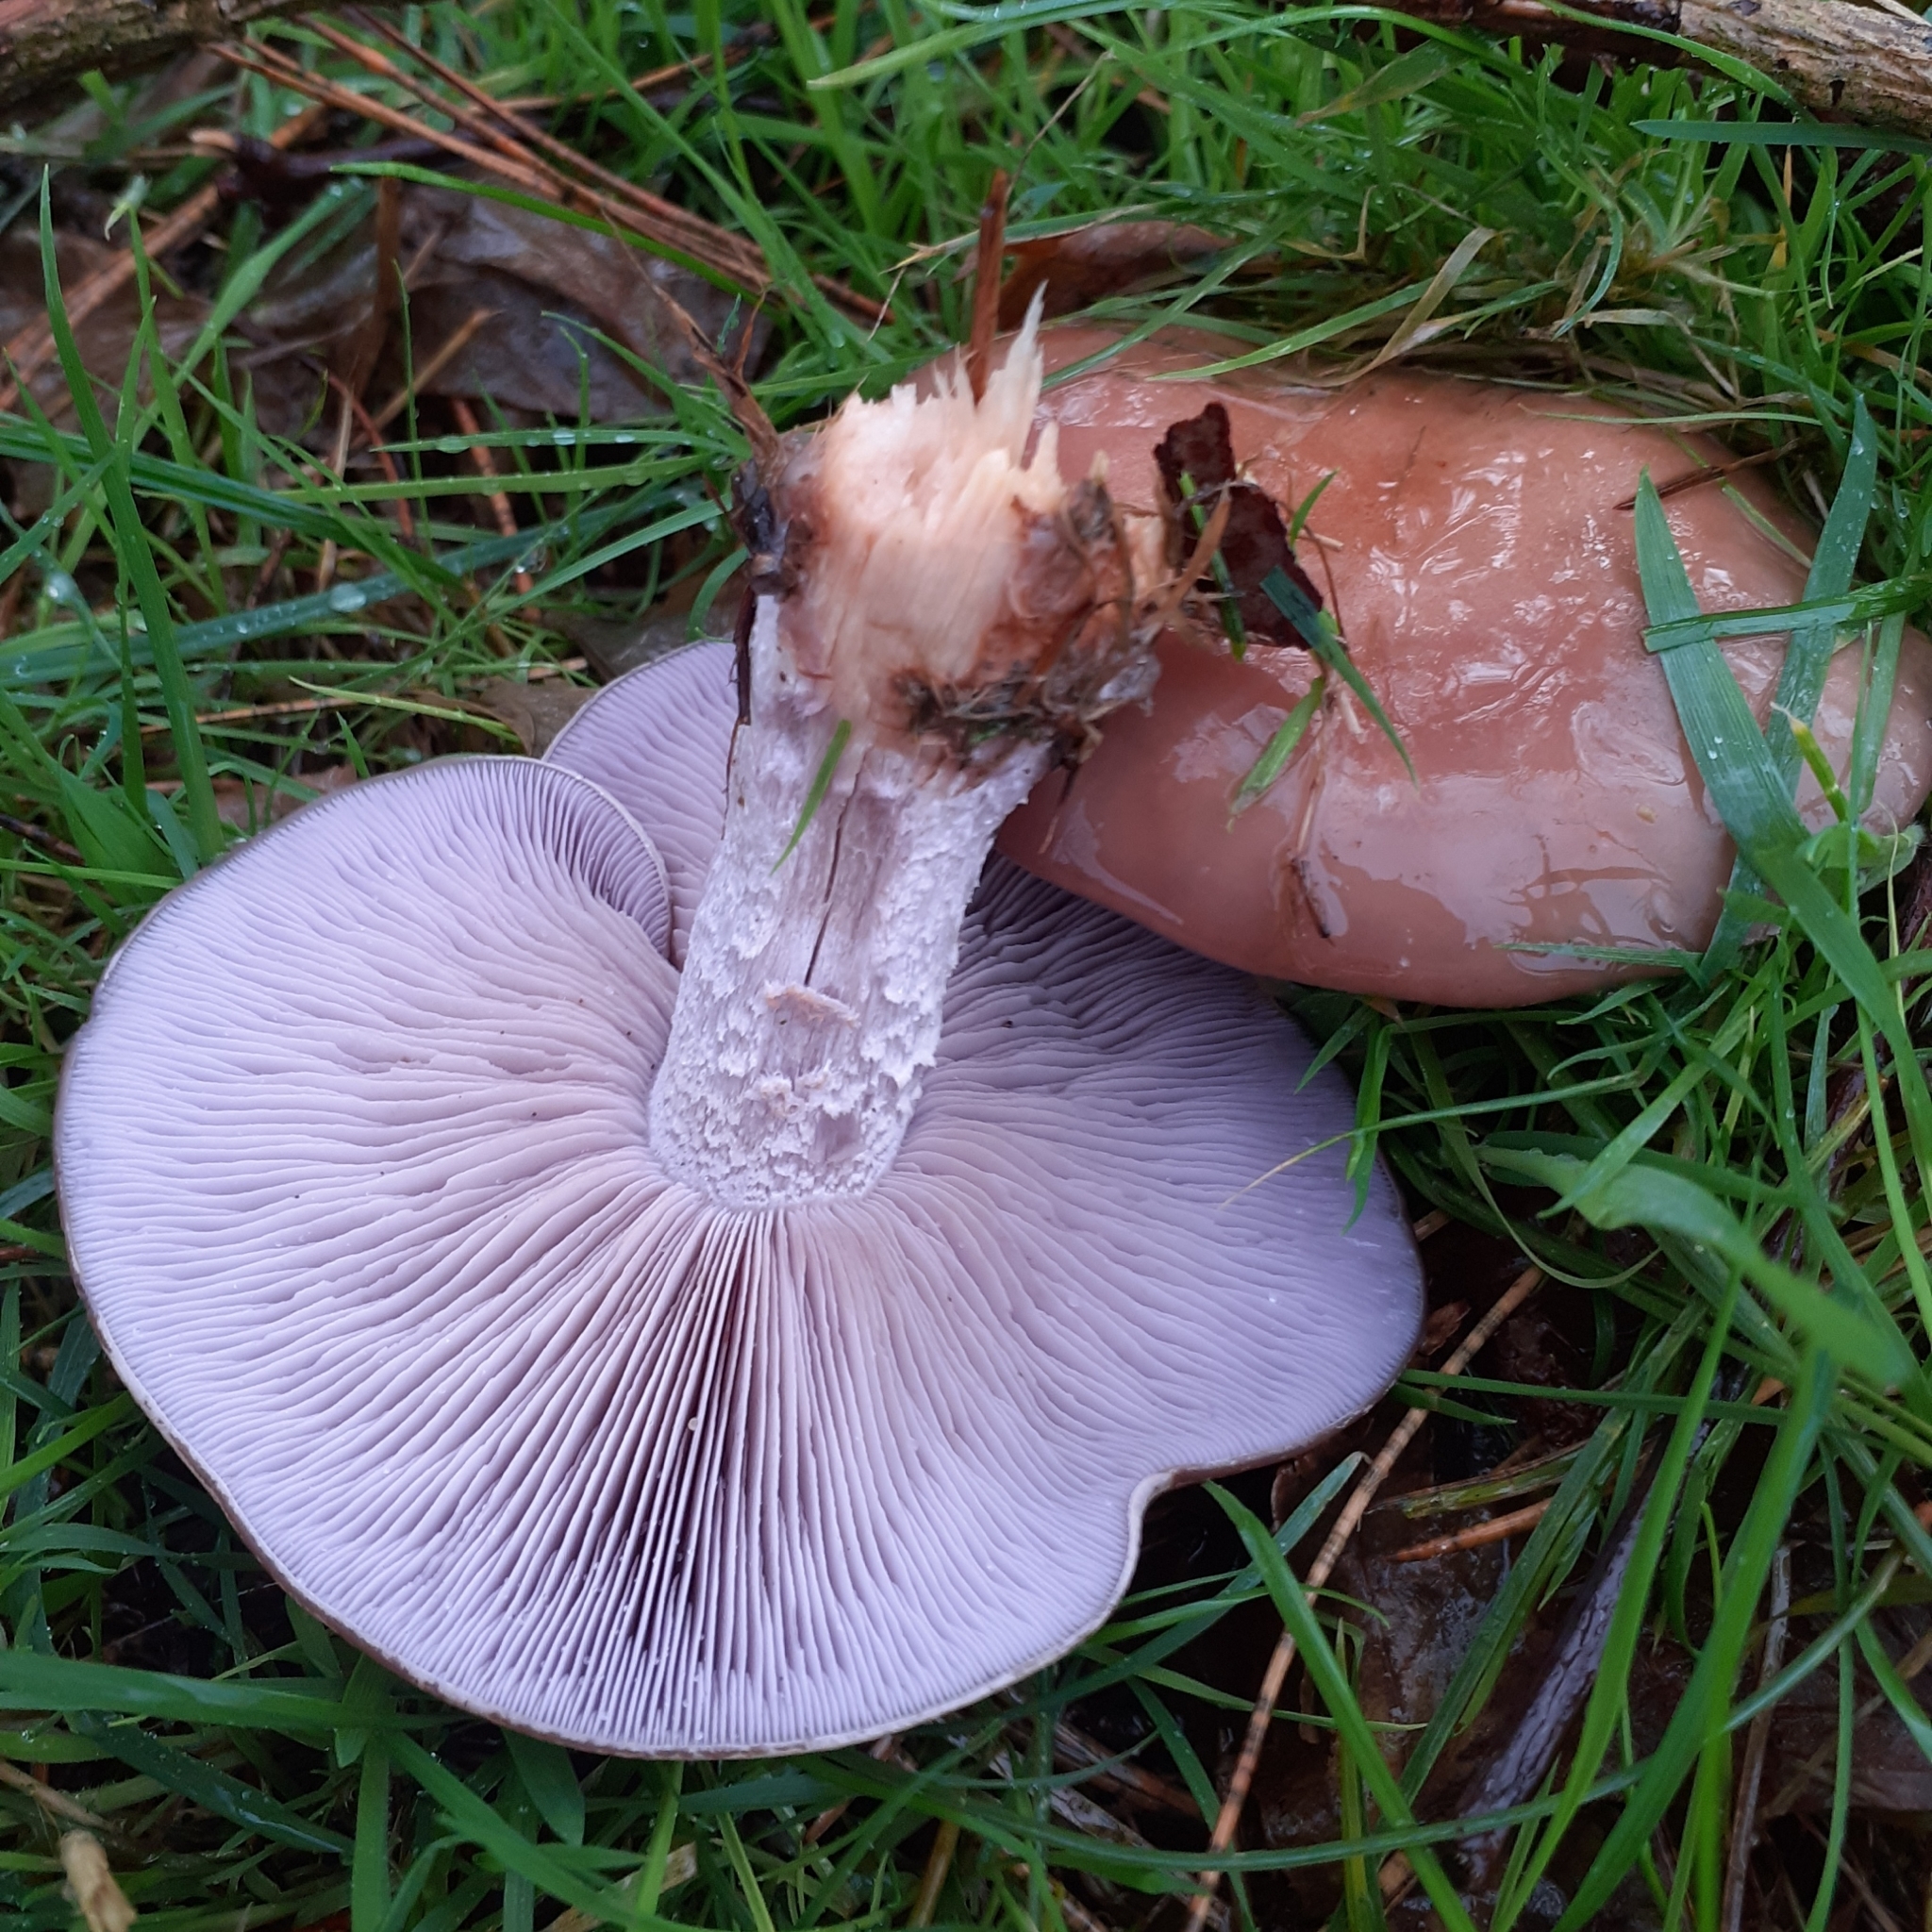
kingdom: Fungi
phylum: Basidiomycota
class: Agaricomycetes
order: Agaricales
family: Tricholomataceae
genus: Collybia
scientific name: Collybia
